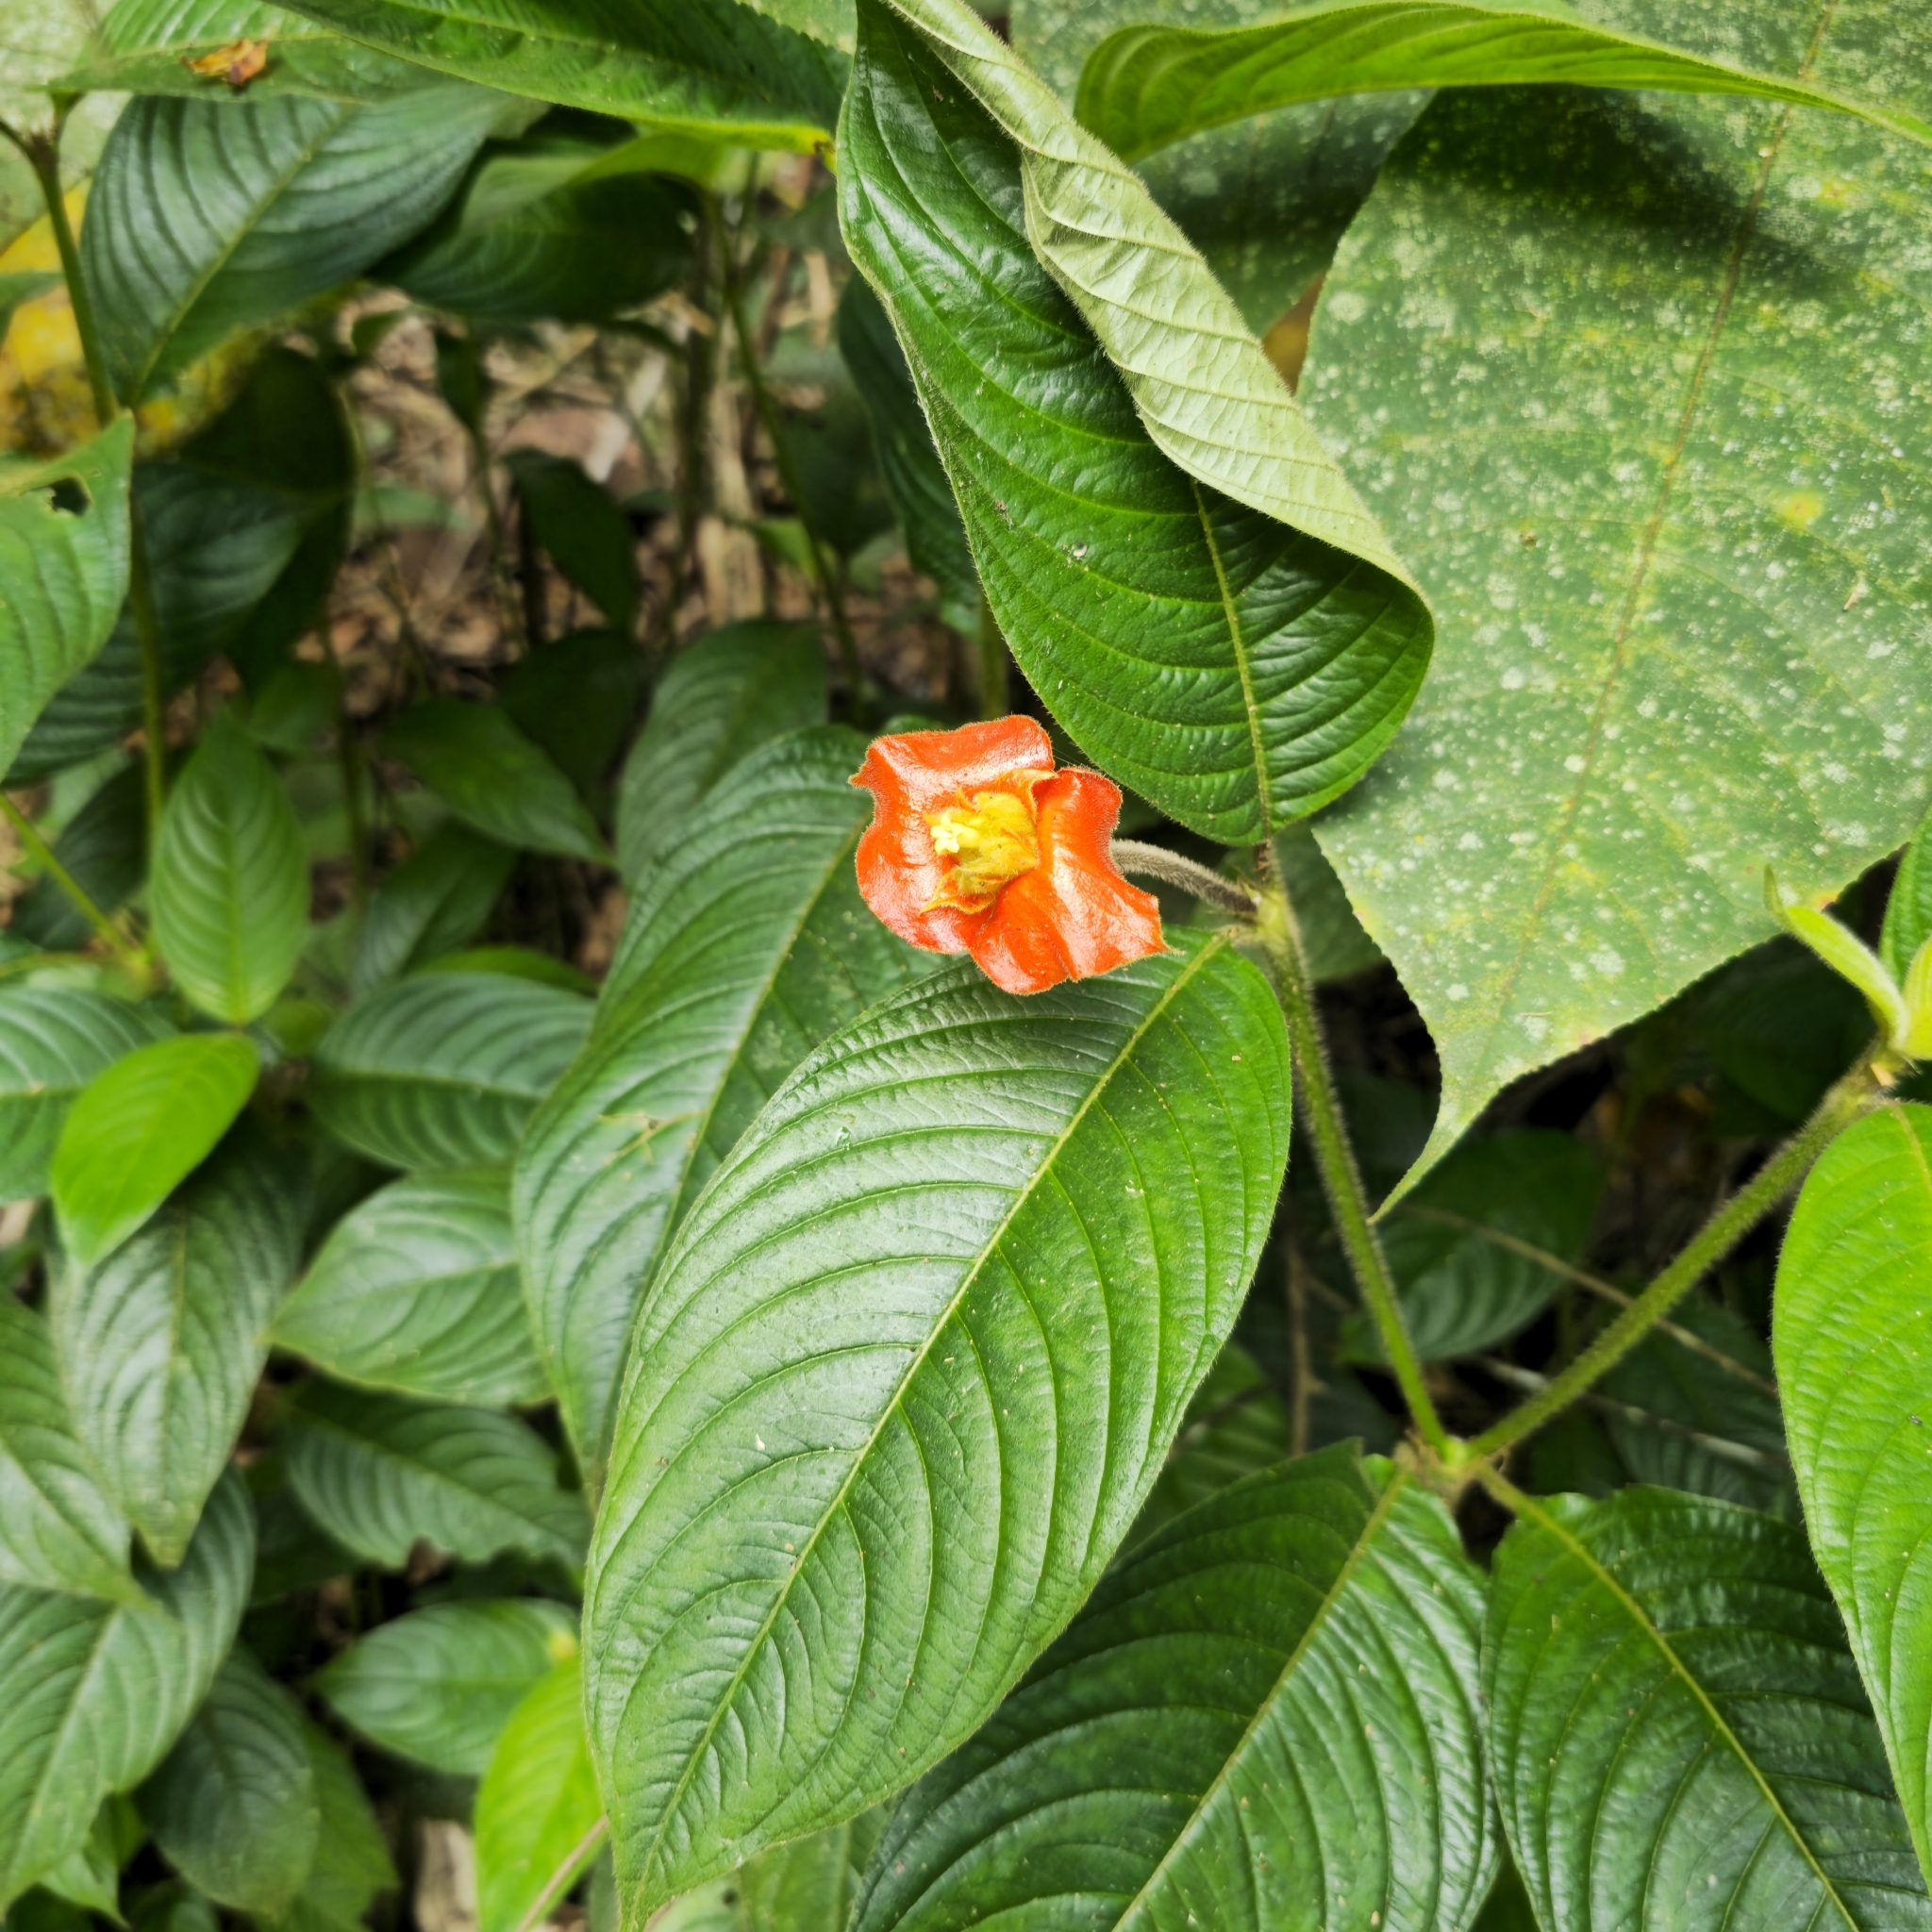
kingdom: Plantae
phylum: Tracheophyta
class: Magnoliopsida
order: Gentianales
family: Rubiaceae
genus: Palicourea
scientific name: Palicourea tomentosa
